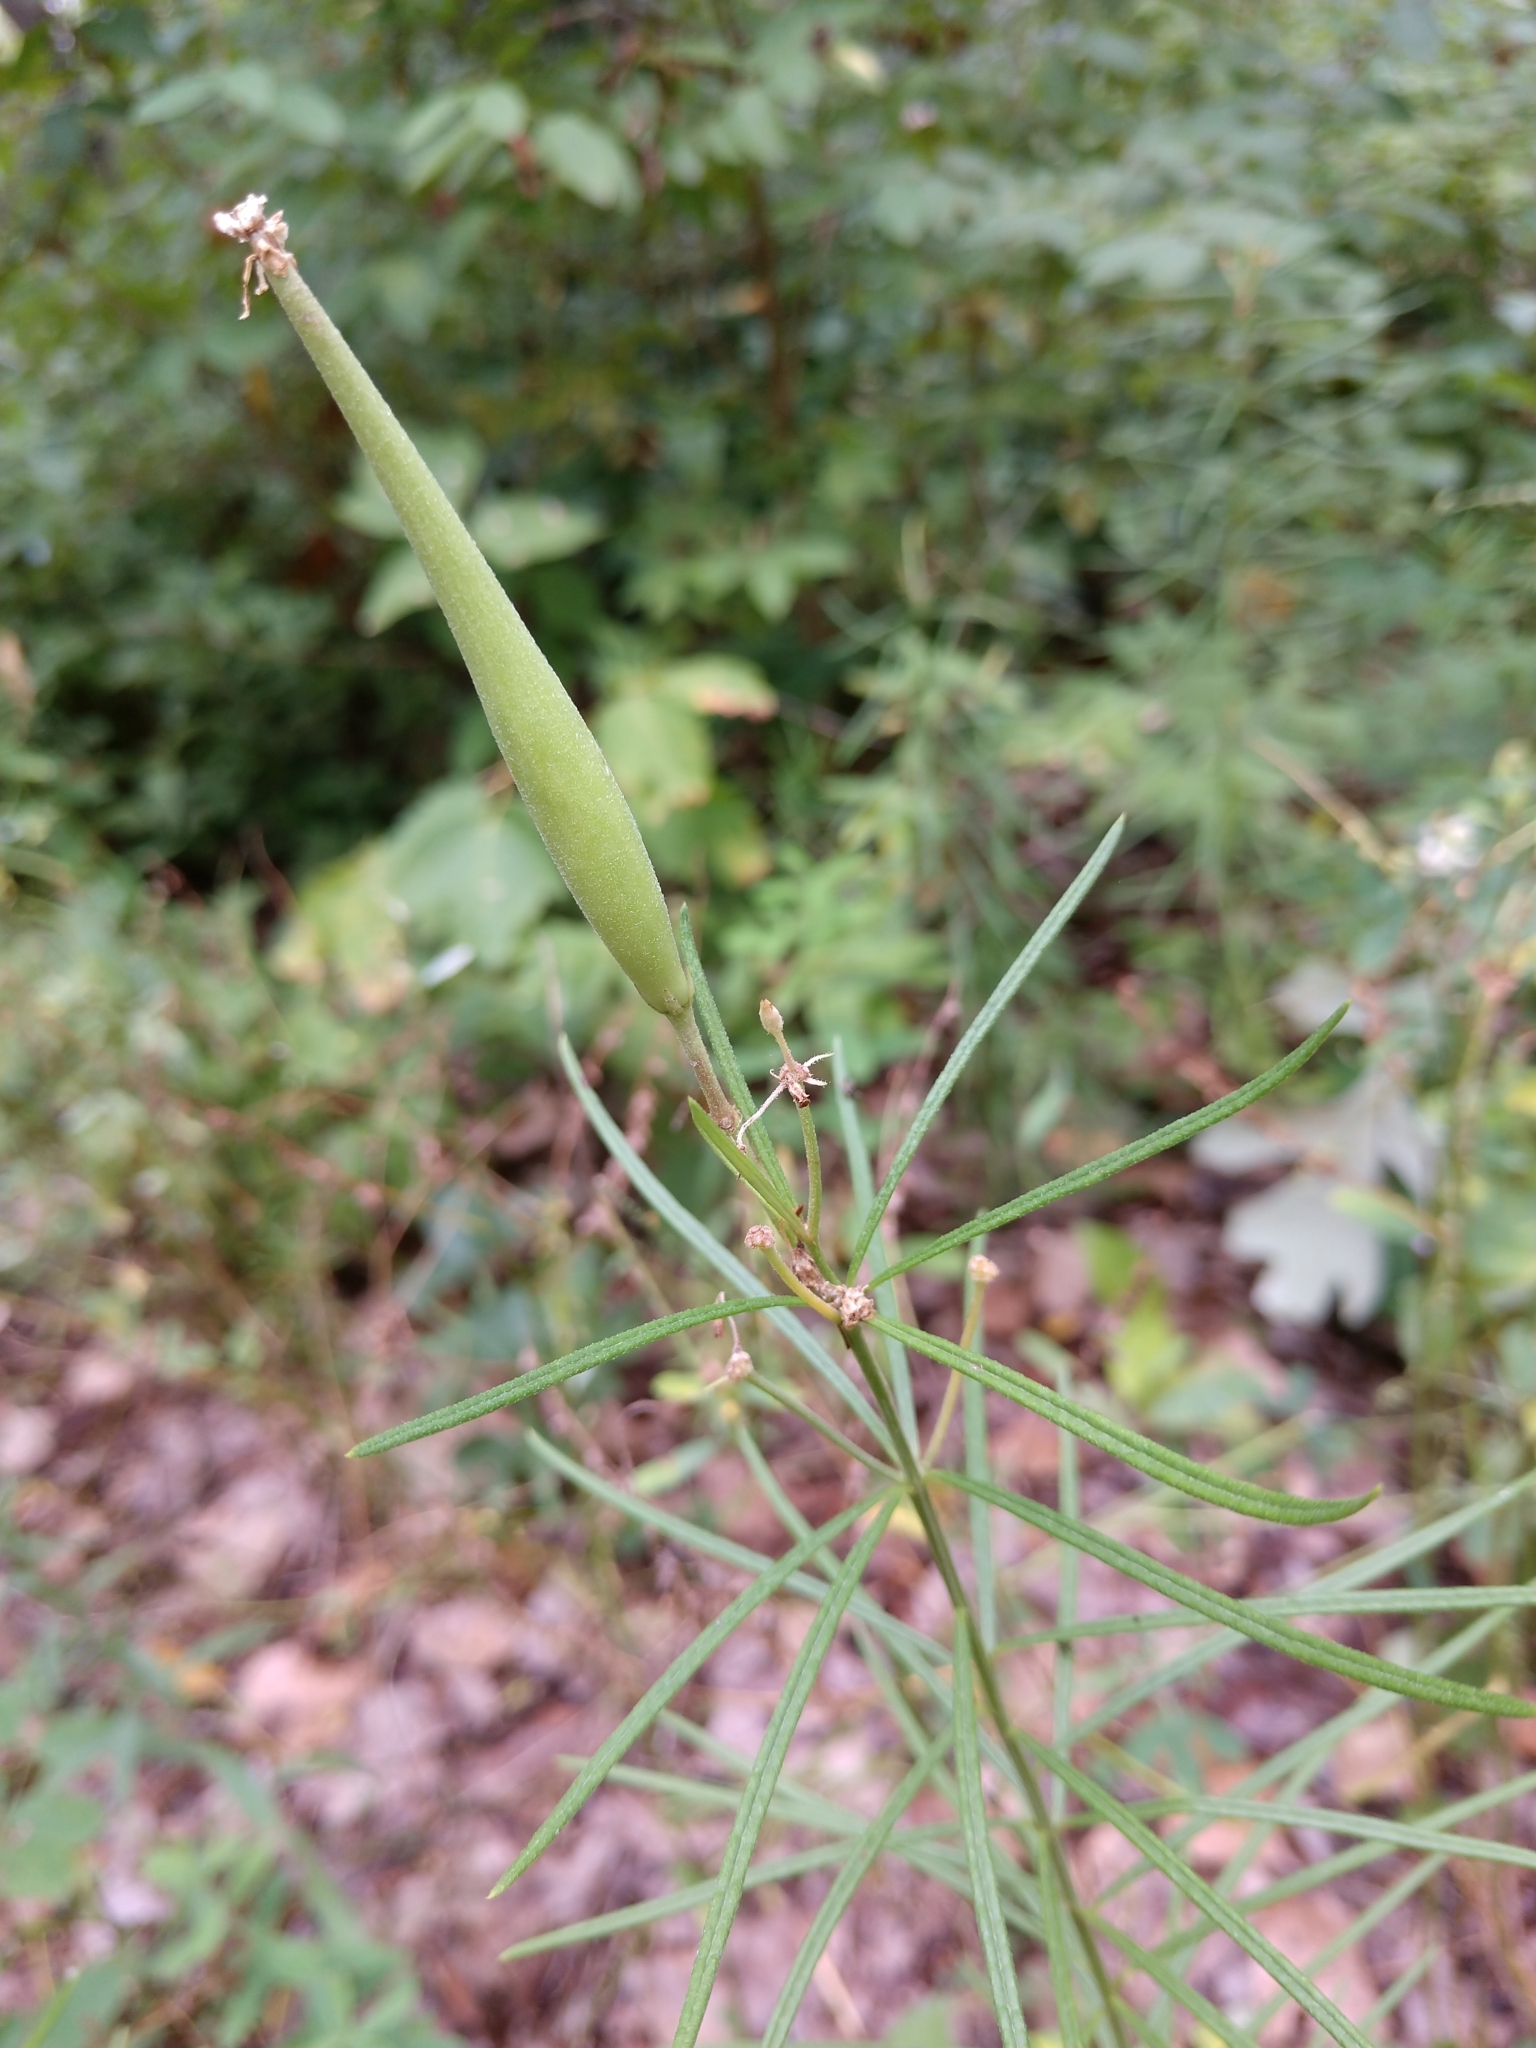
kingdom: Plantae
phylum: Tracheophyta
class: Magnoliopsida
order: Gentianales
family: Apocynaceae
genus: Asclepias
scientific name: Asclepias verticillata
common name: Eastern whorled milkweed
